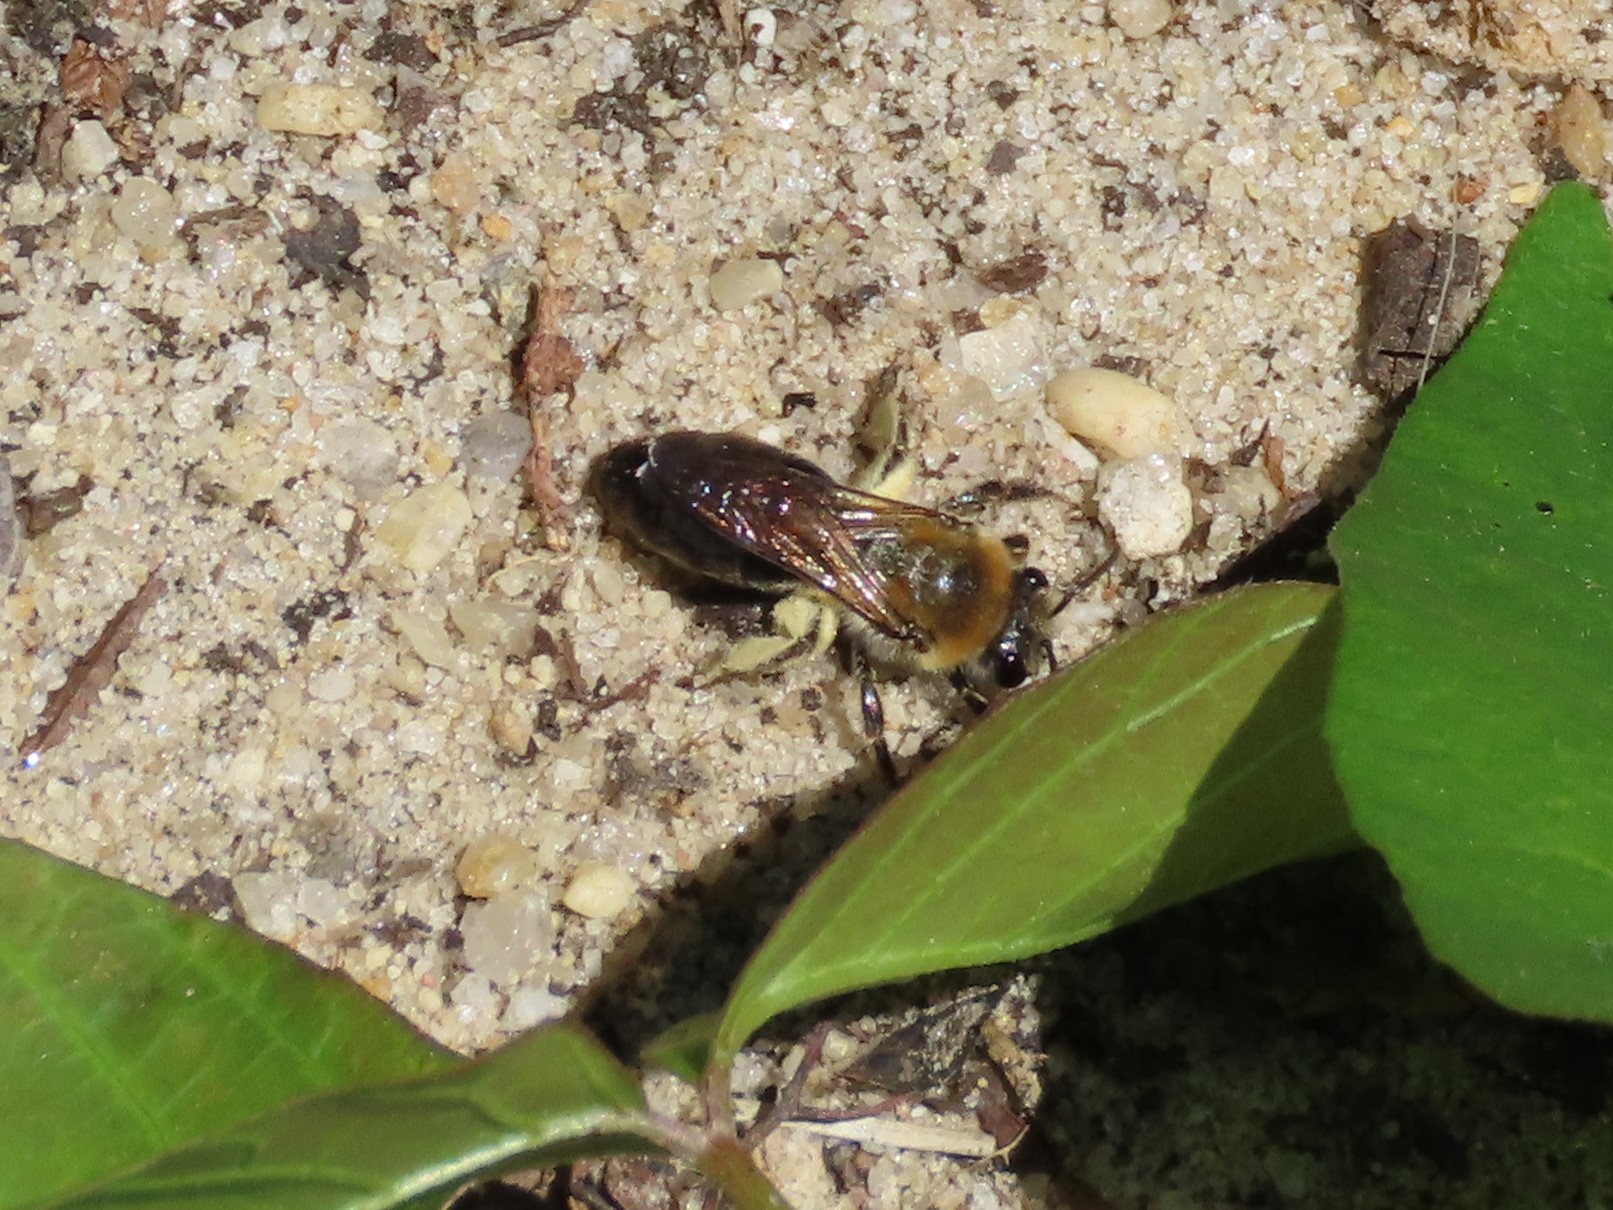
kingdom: Animalia
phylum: Arthropoda
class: Insecta
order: Hymenoptera
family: Colletidae
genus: Colletes
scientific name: Colletes thoracicus
